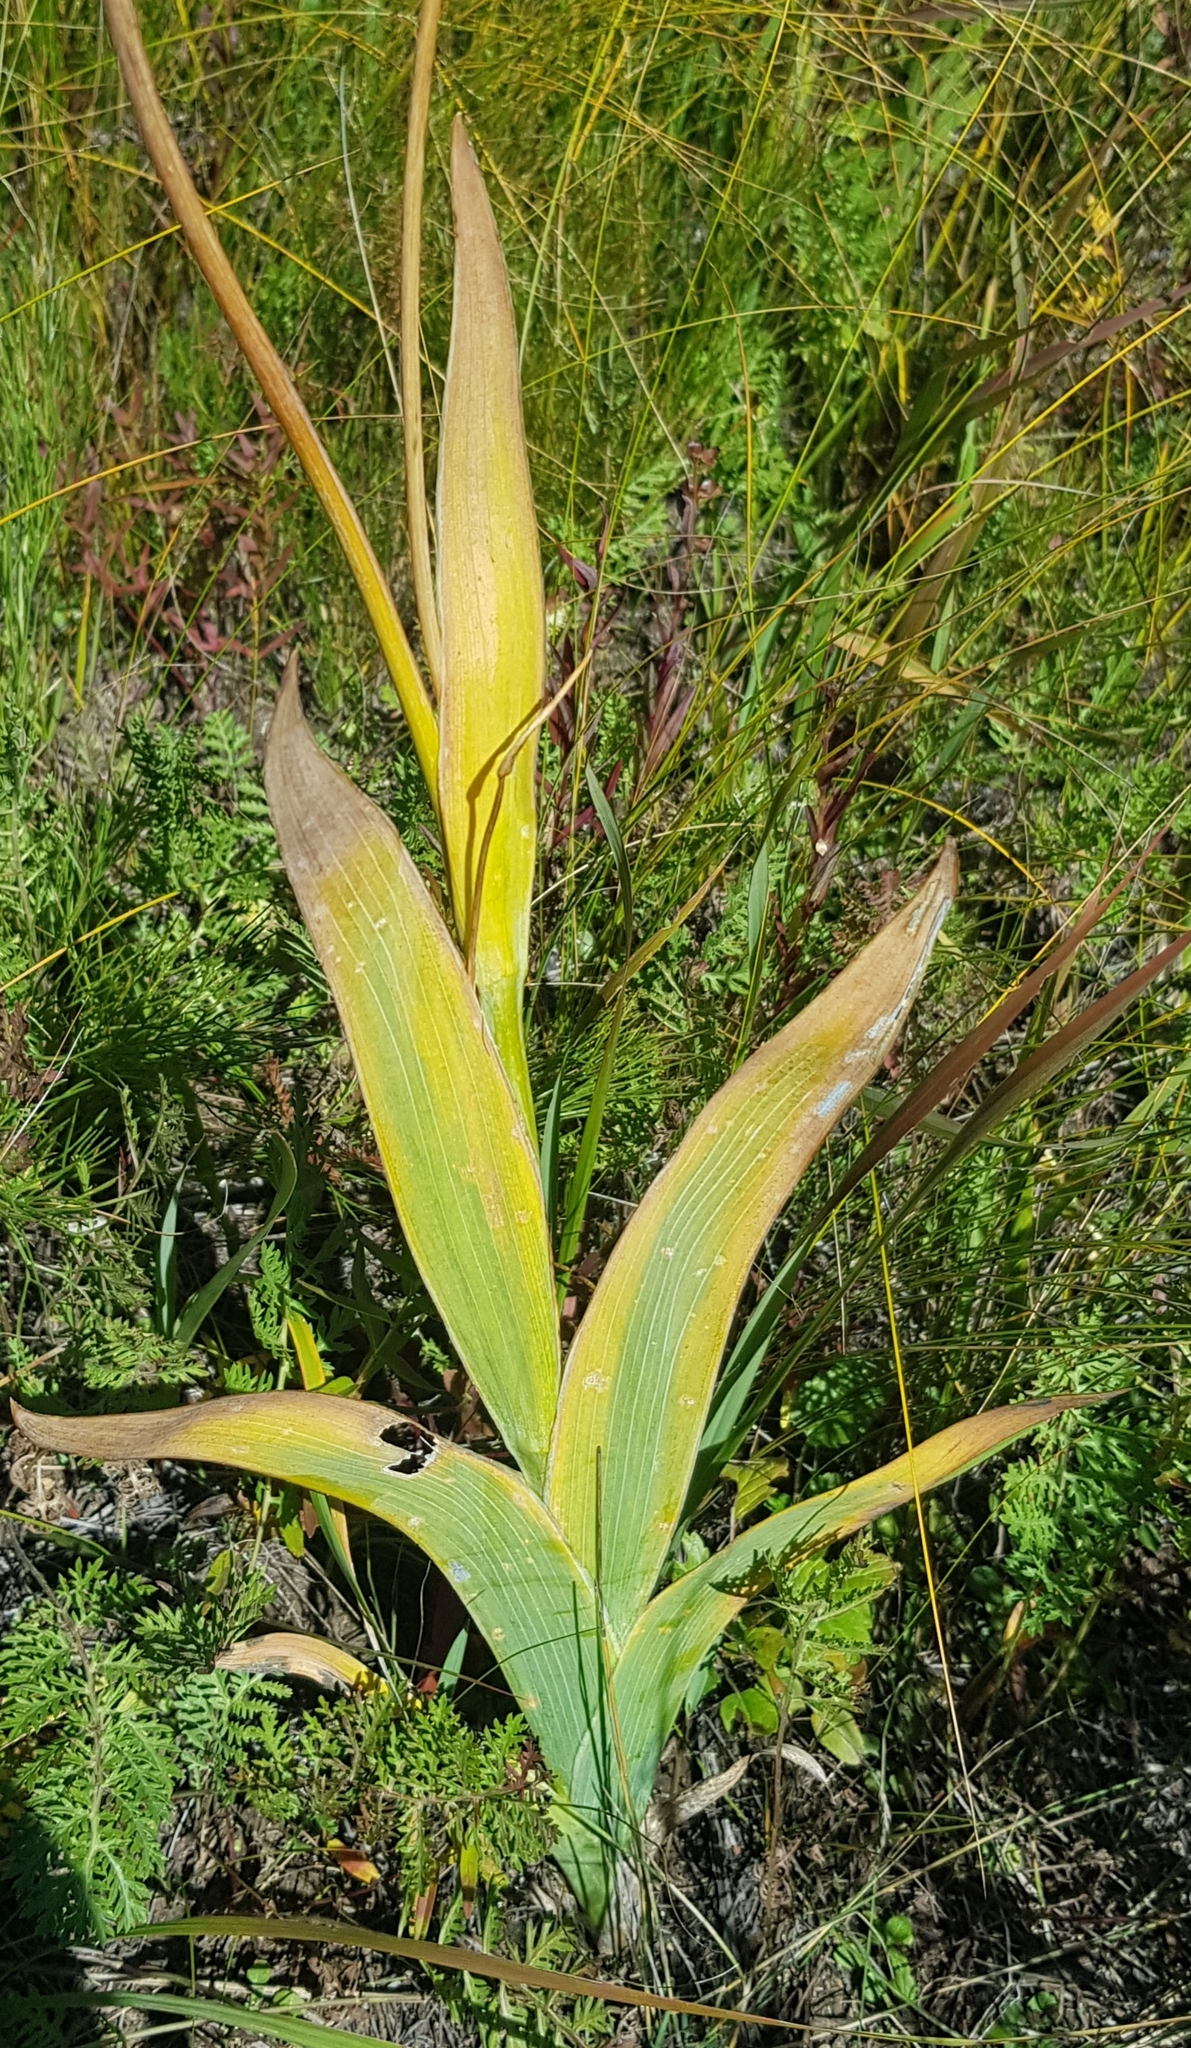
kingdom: Plantae
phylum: Tracheophyta
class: Liliopsida
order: Asparagales
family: Iridaceae
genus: Iris
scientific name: Iris dichotoma
